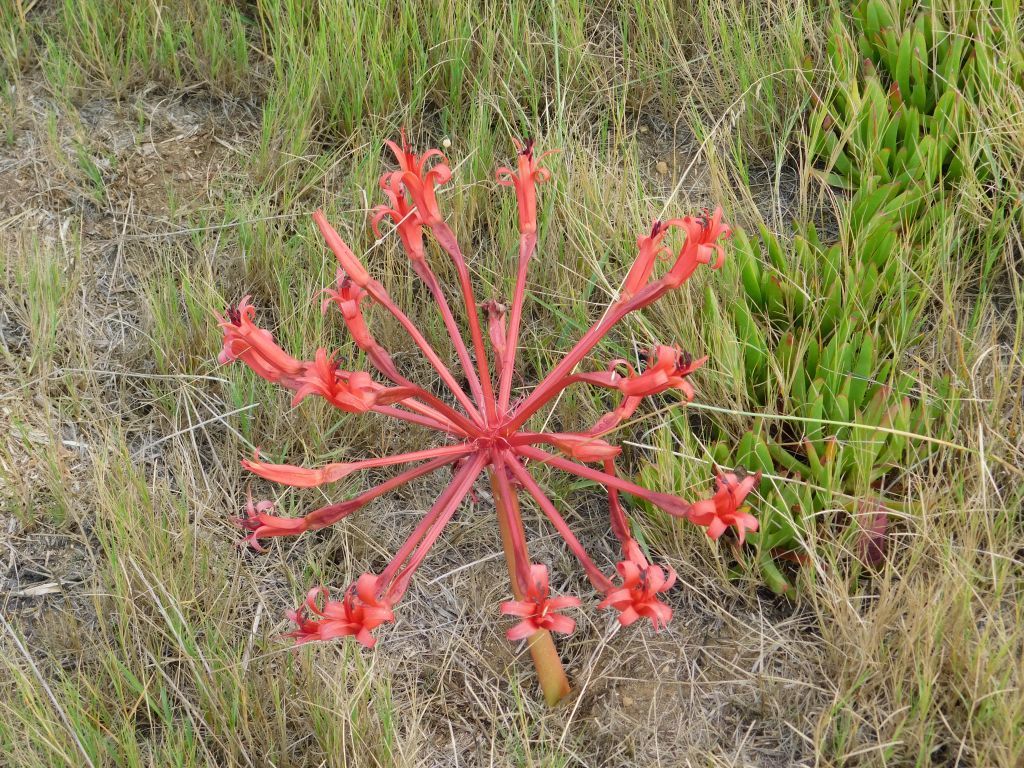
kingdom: Plantae
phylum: Tracheophyta
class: Liliopsida
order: Asparagales
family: Amaryllidaceae
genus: Brunsvigia
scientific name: Brunsvigia orientalis
